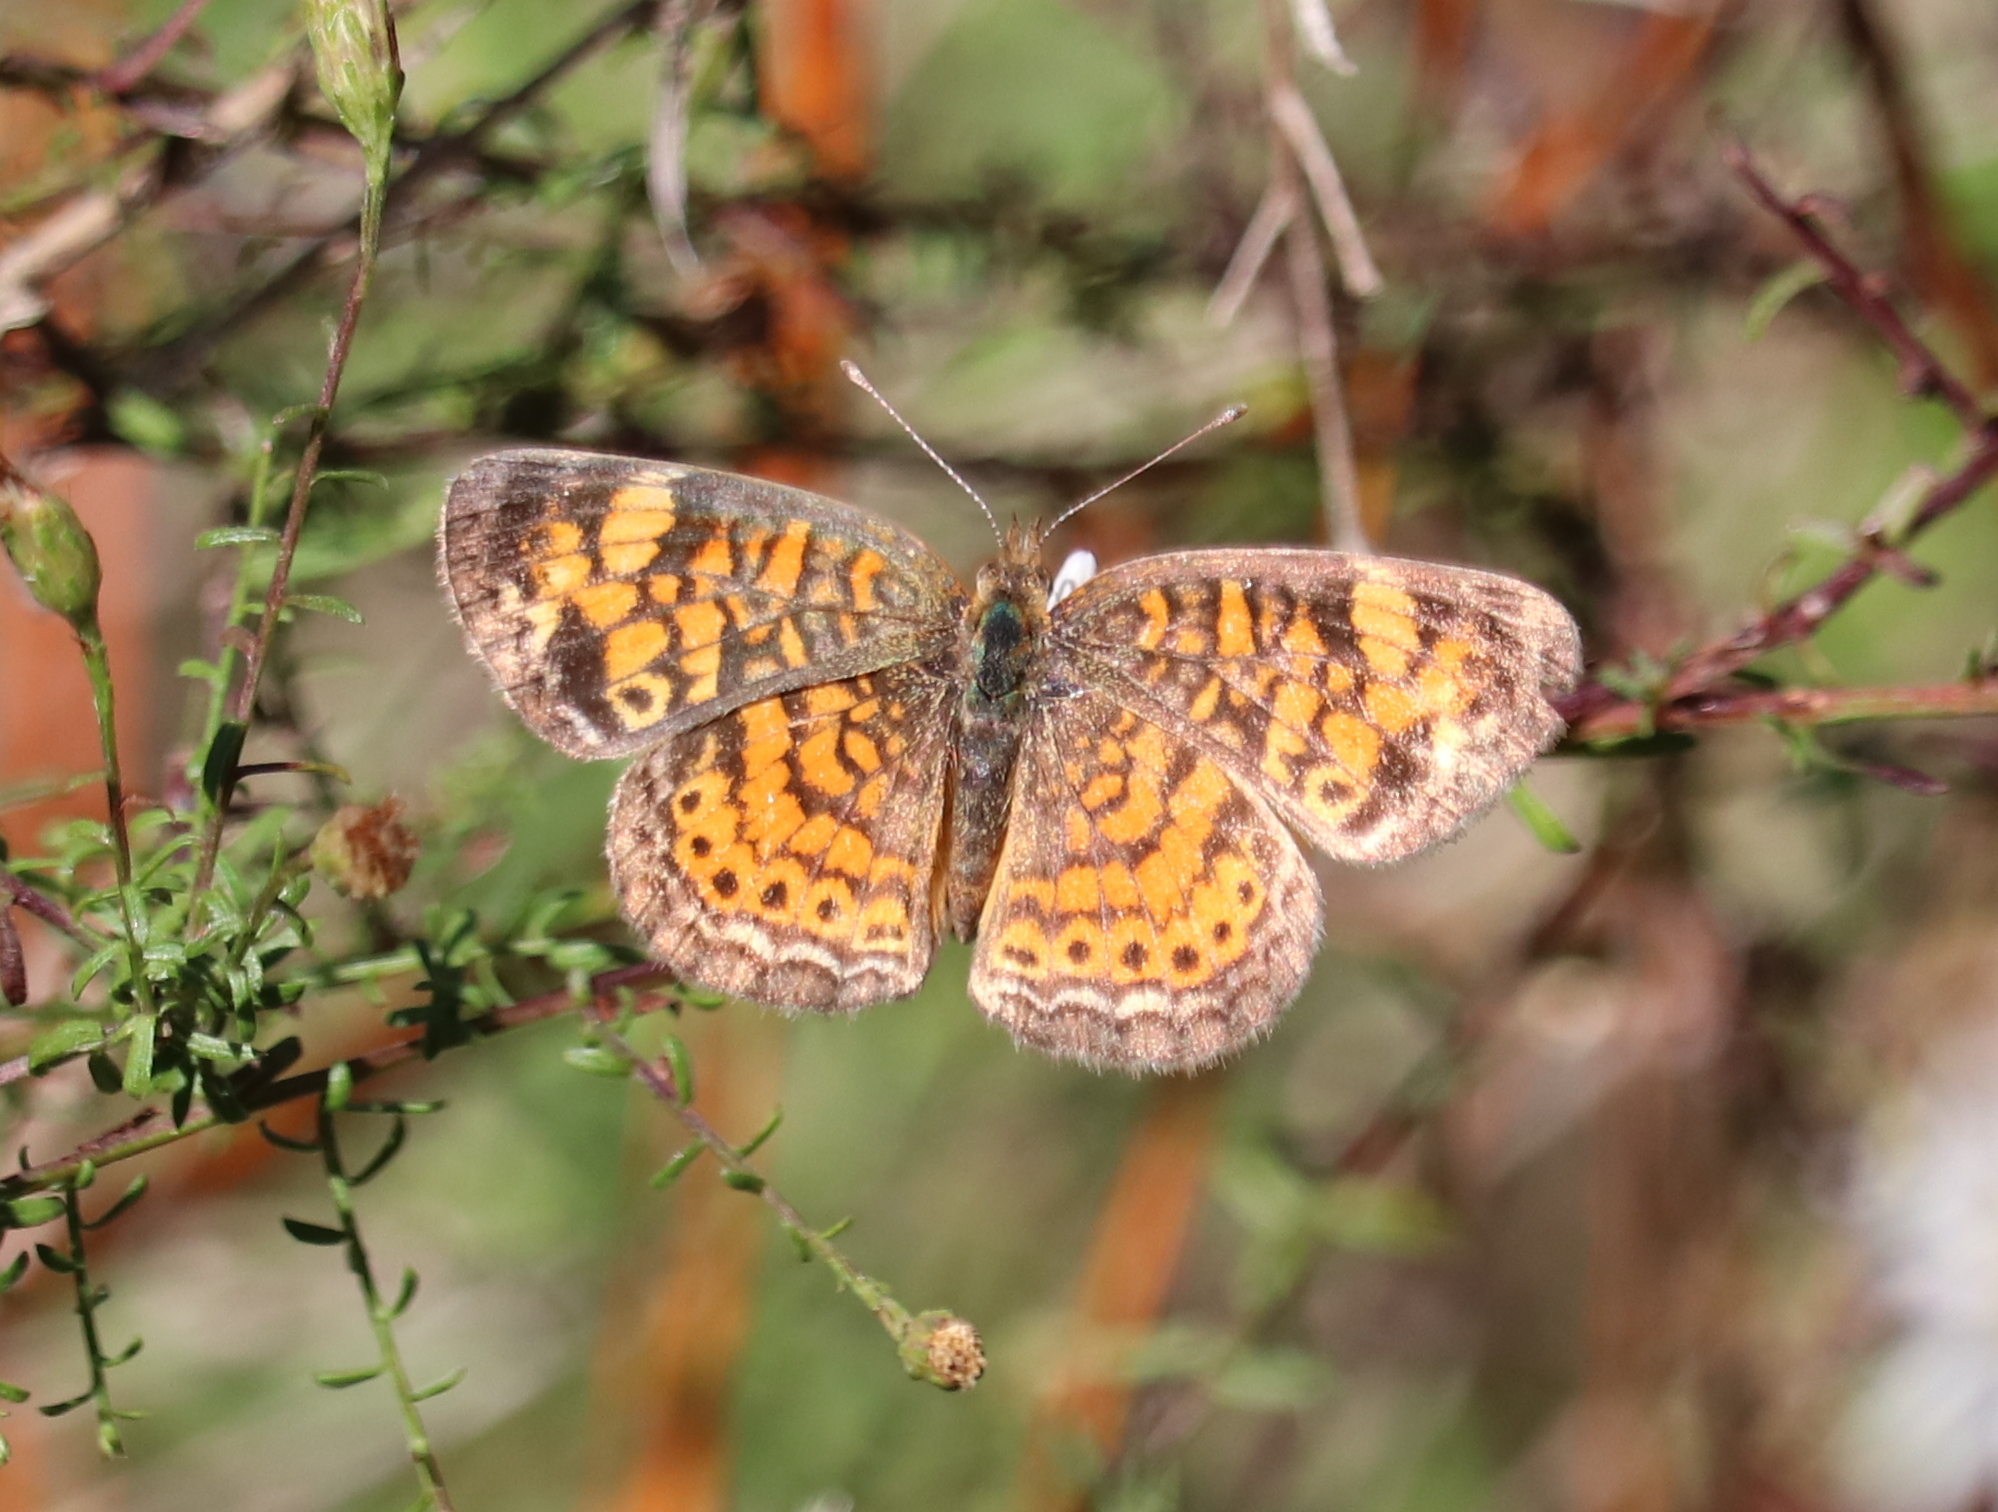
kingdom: Animalia
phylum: Arthropoda
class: Insecta
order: Lepidoptera
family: Nymphalidae
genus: Phyciodes
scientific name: Phyciodes tharos
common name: Pearl crescent
